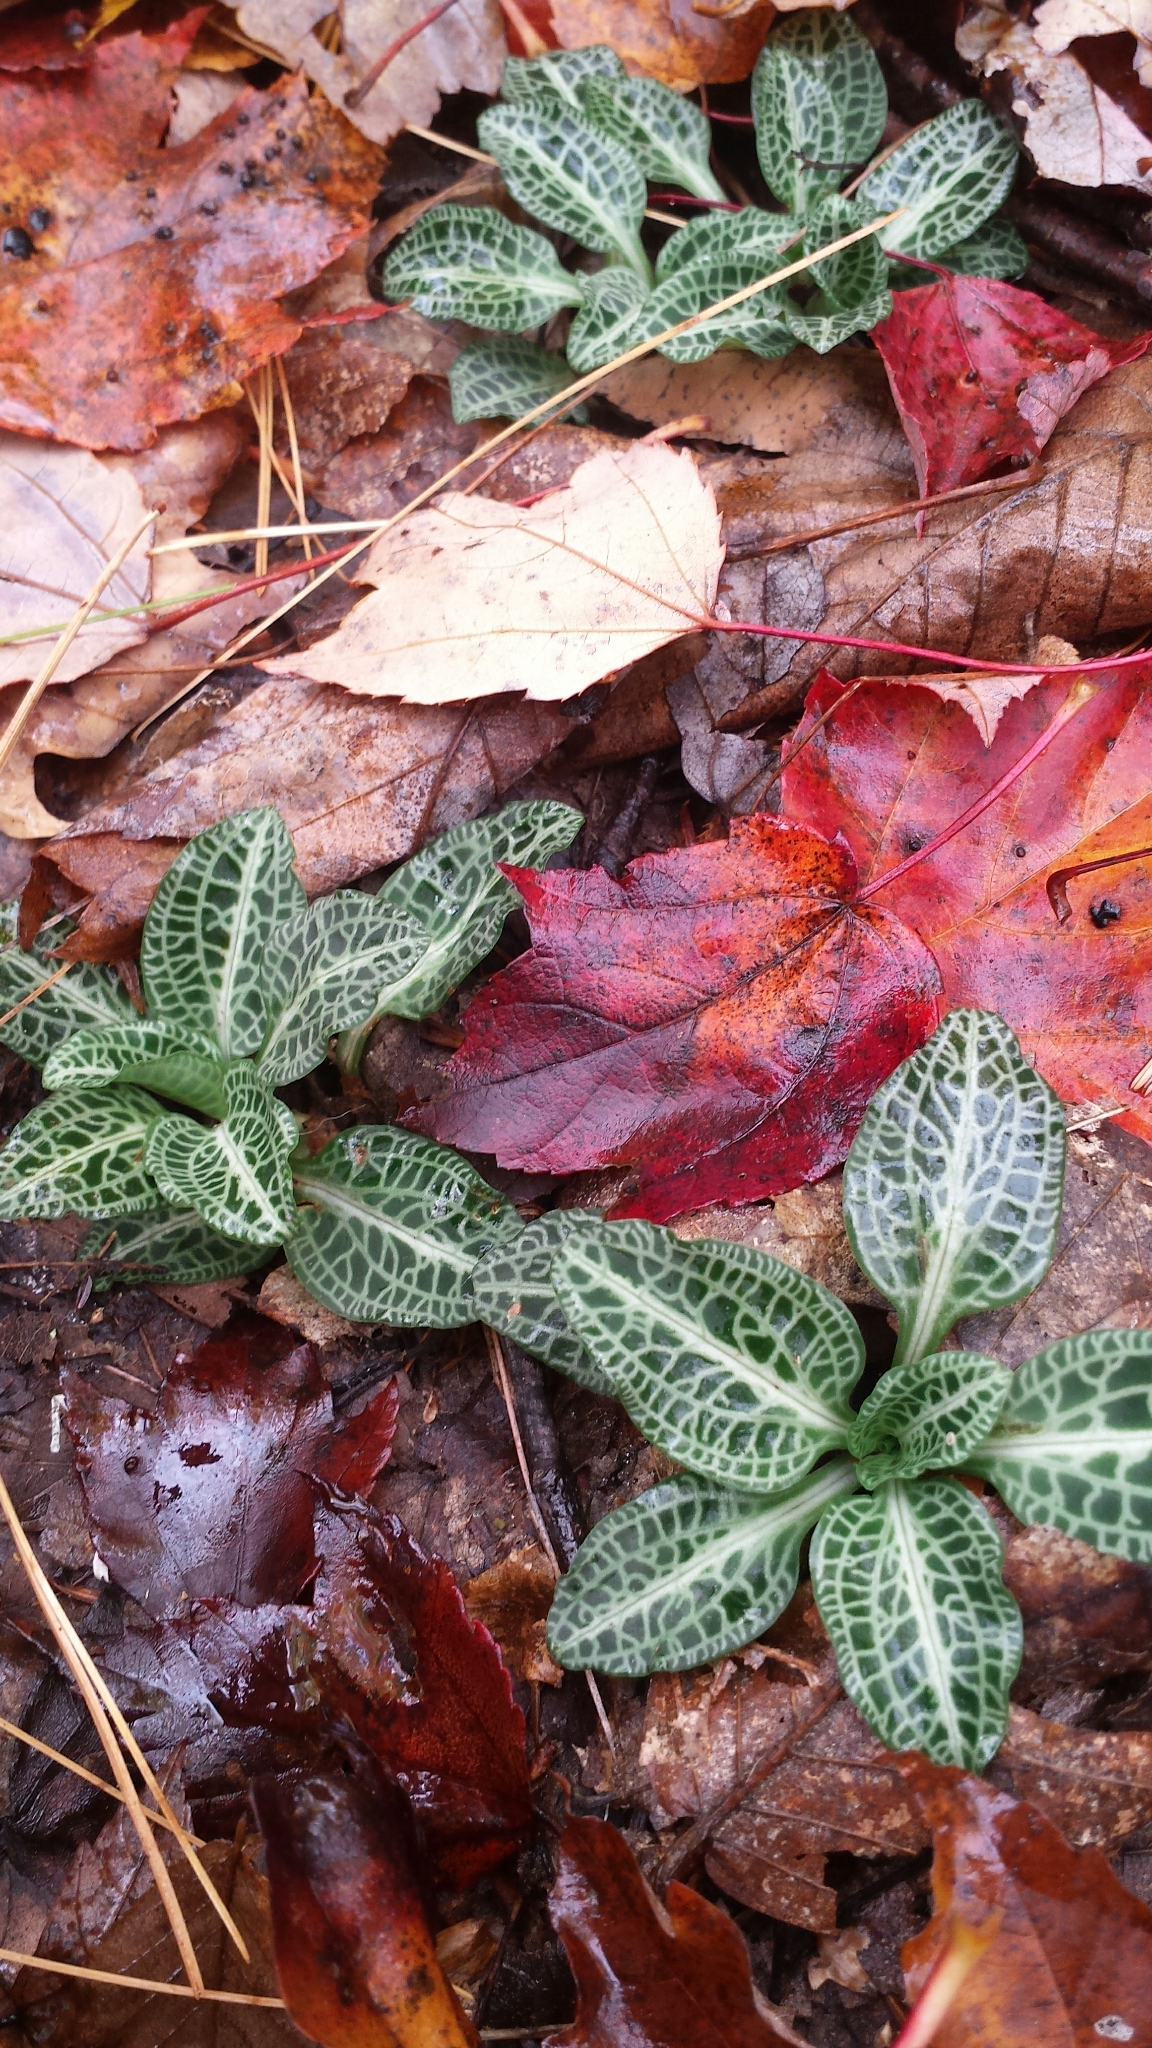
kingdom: Plantae
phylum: Tracheophyta
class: Liliopsida
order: Asparagales
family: Orchidaceae
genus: Goodyera
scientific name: Goodyera pubescens
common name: Downy rattlesnake-plantain
